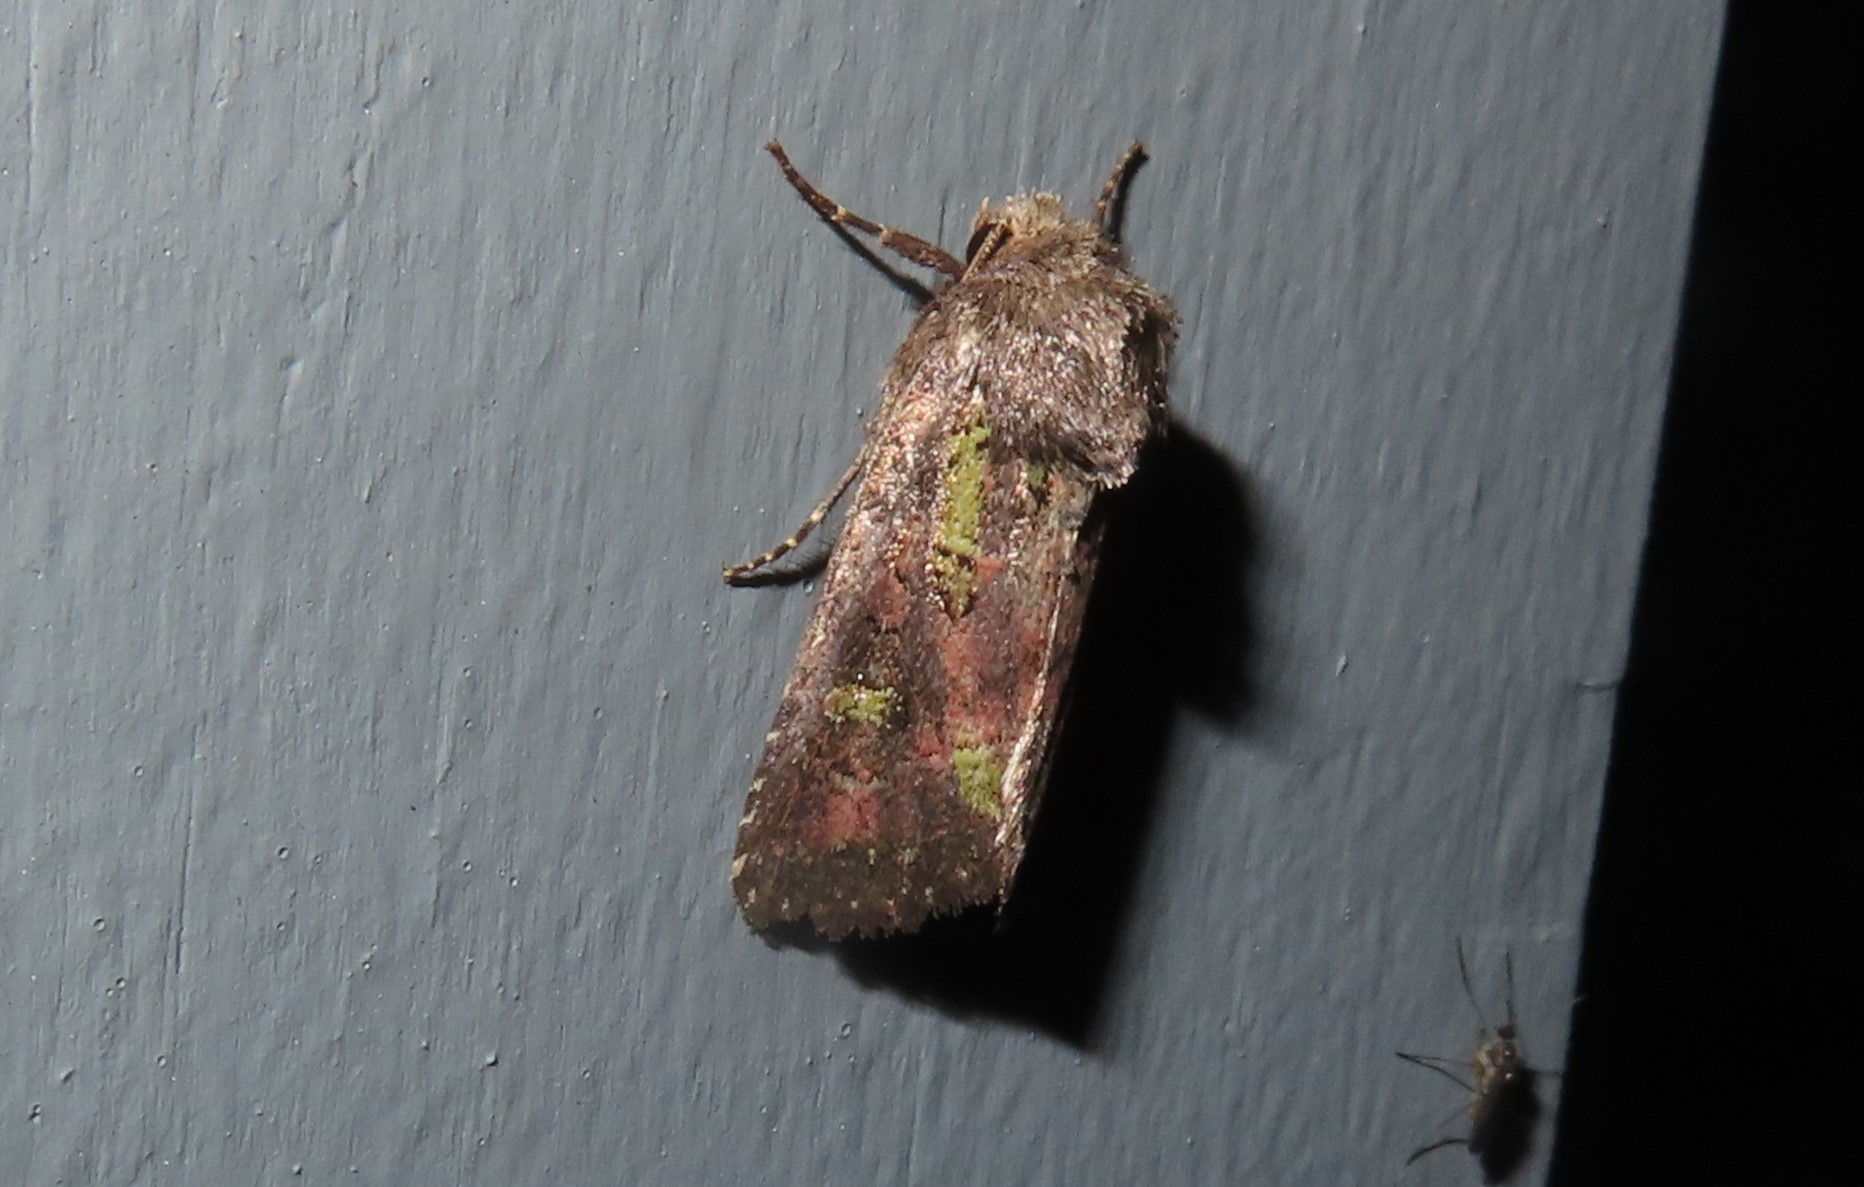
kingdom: Animalia
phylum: Arthropoda
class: Insecta
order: Lepidoptera
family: Noctuidae
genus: Lacinipolia
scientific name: Lacinipolia renigera
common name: Kidney-spotted minor
